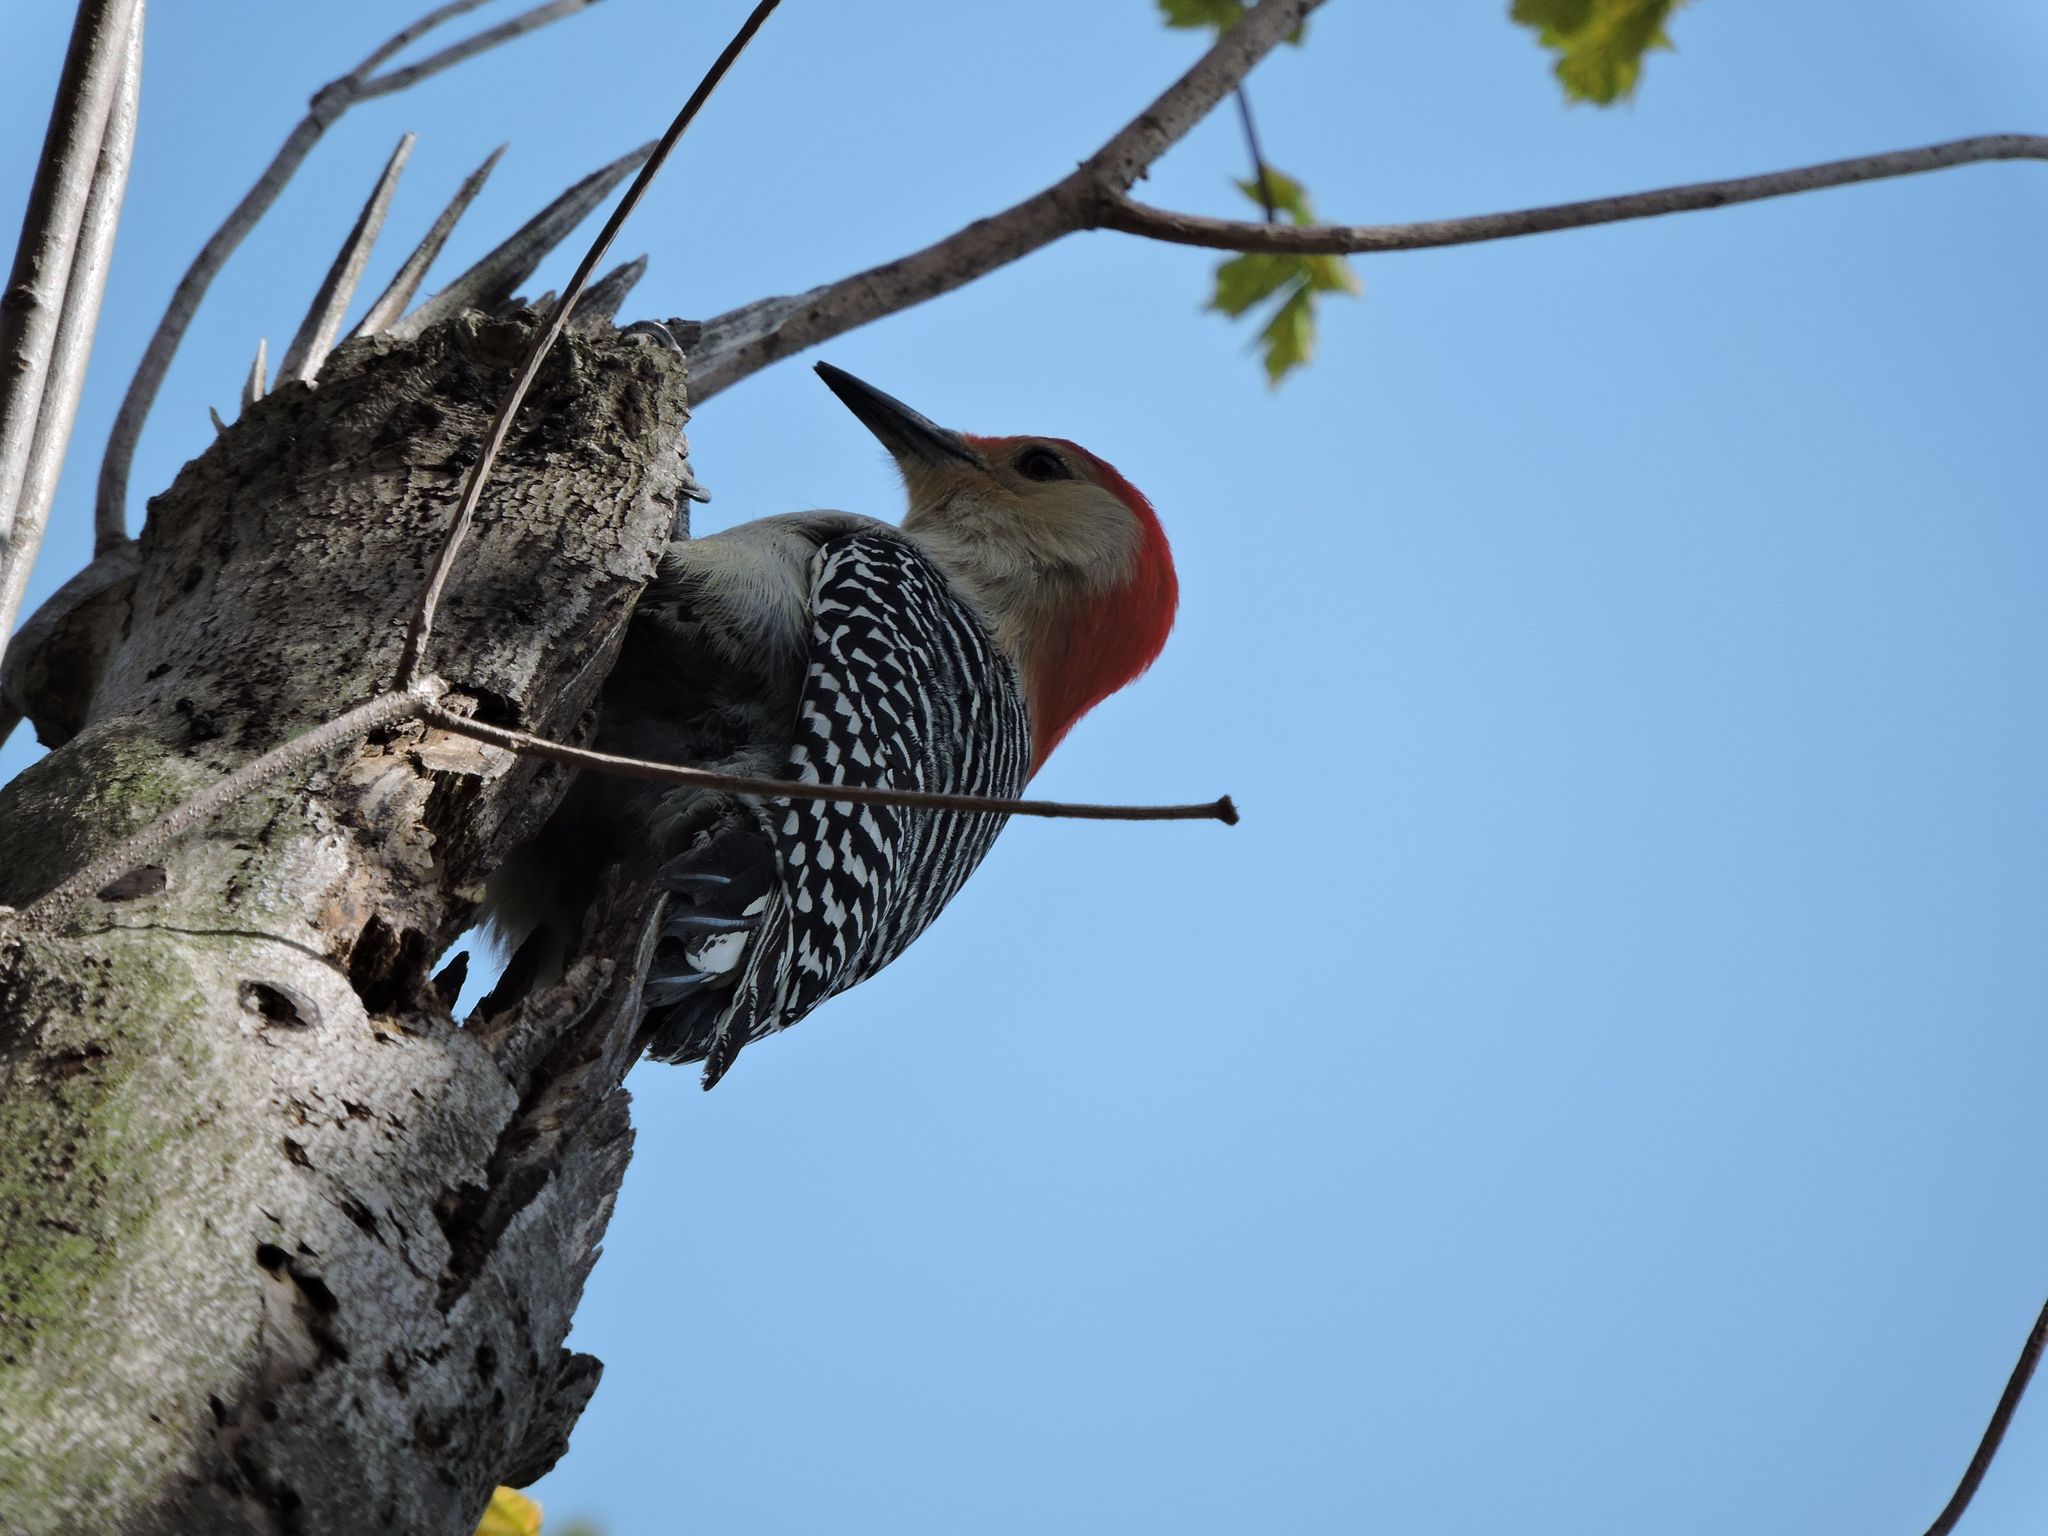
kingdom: Animalia
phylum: Chordata
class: Aves
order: Piciformes
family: Picidae
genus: Melanerpes
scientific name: Melanerpes carolinus
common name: Red-bellied woodpecker
